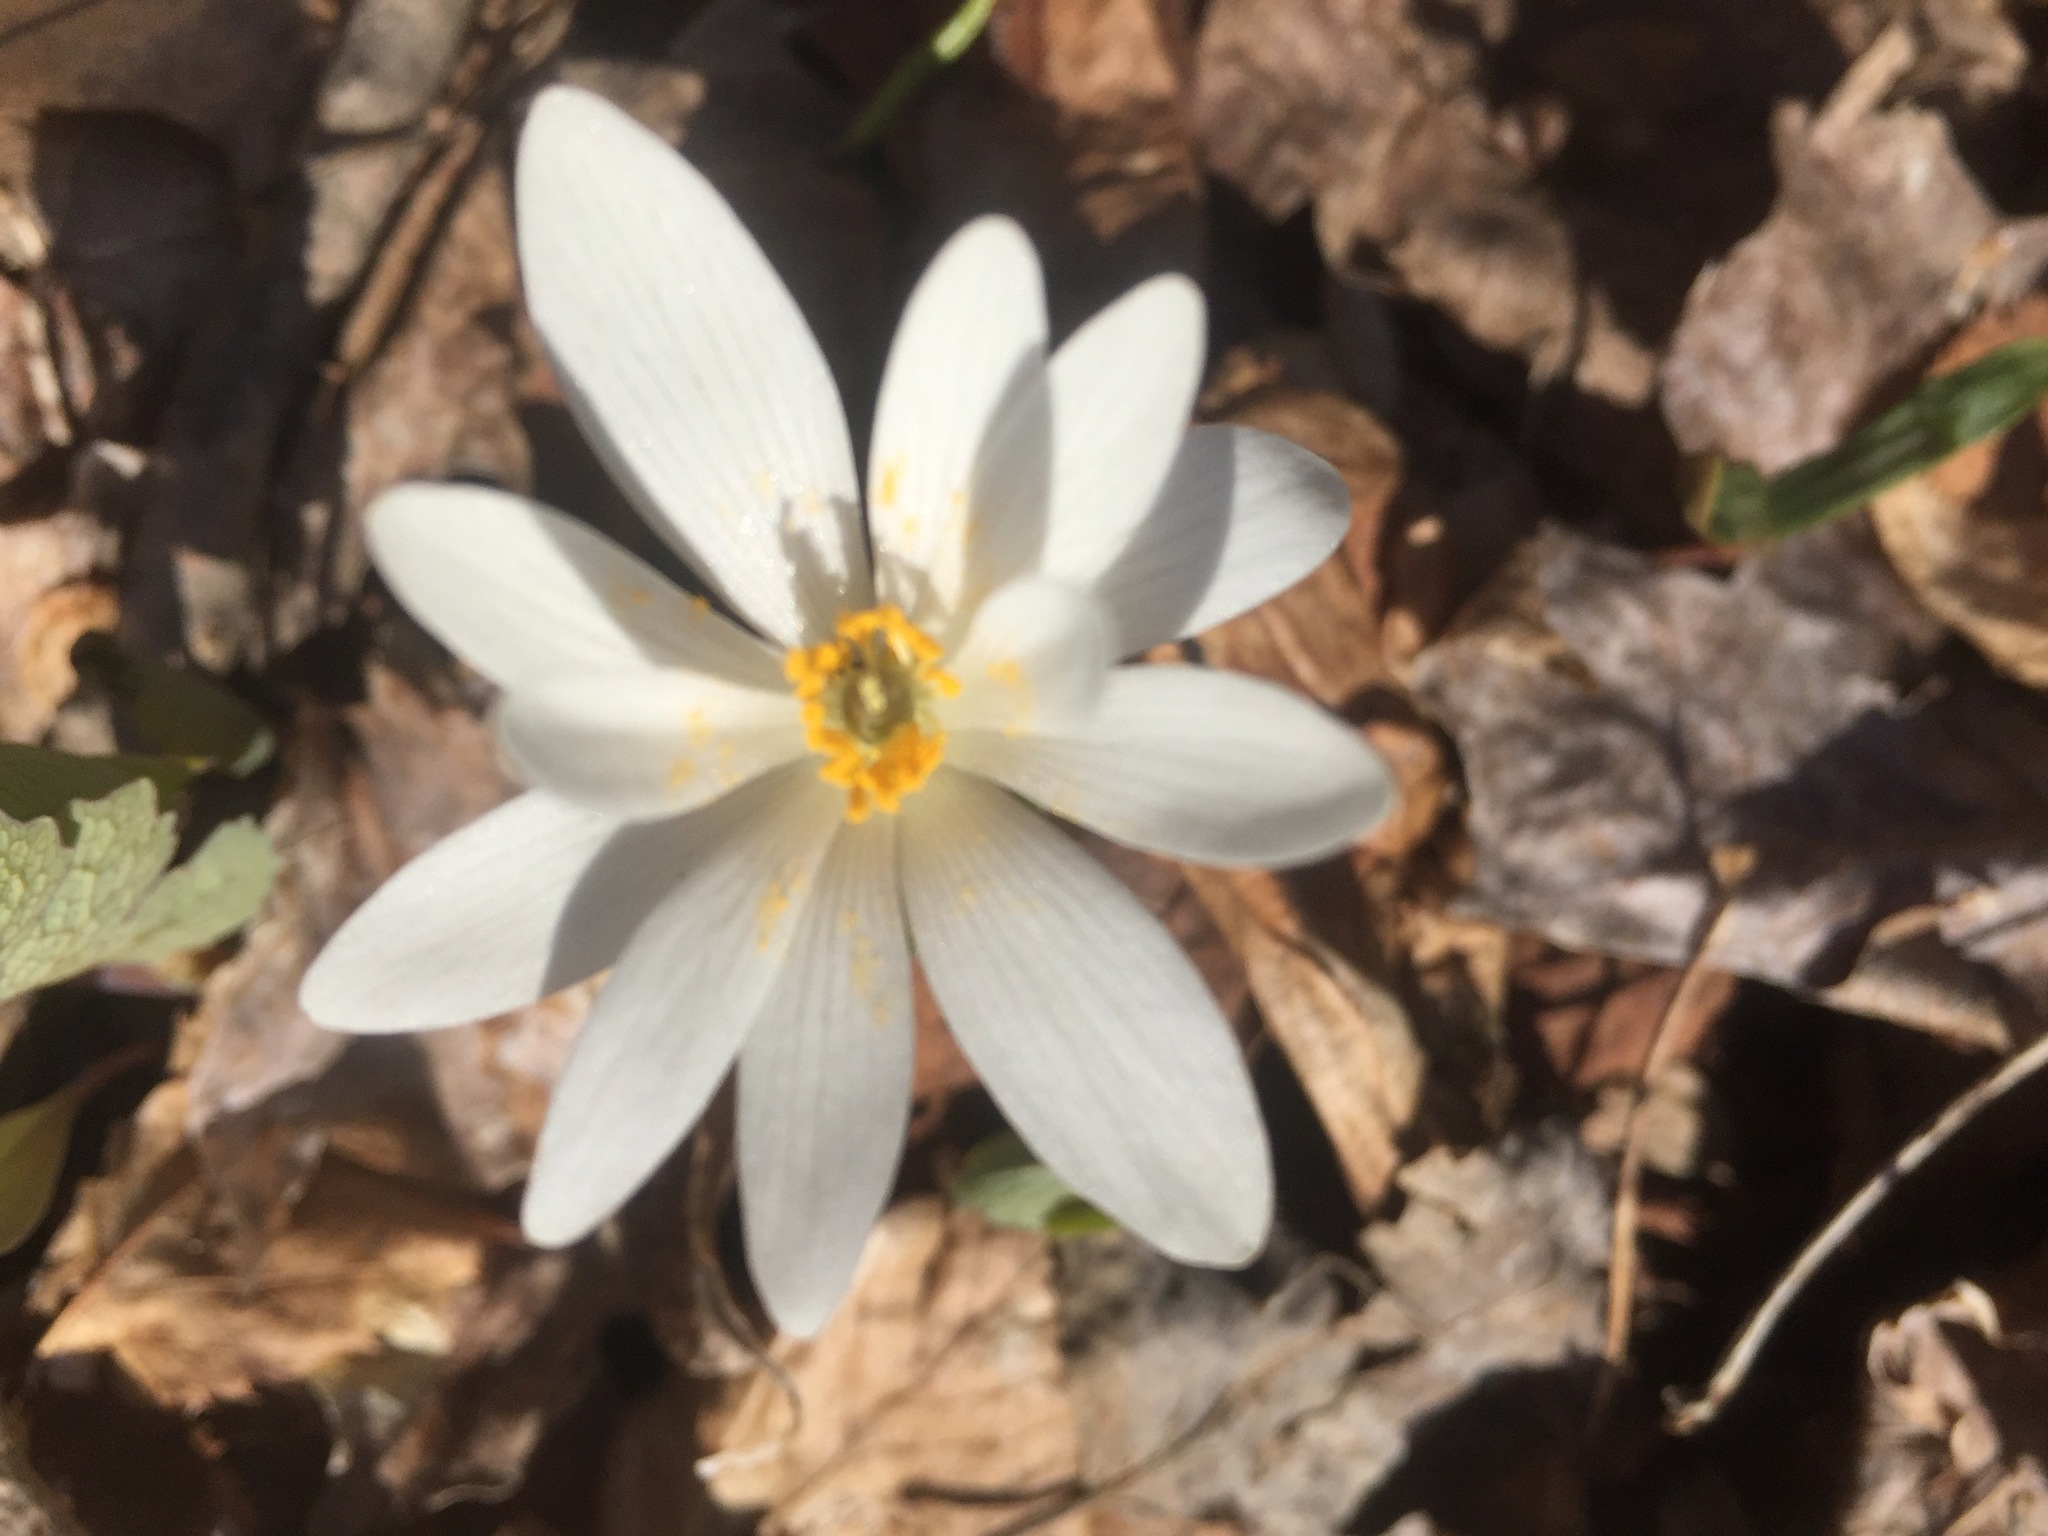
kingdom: Plantae
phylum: Tracheophyta
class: Magnoliopsida
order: Ranunculales
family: Papaveraceae
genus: Sanguinaria
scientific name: Sanguinaria canadensis
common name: Bloodroot
